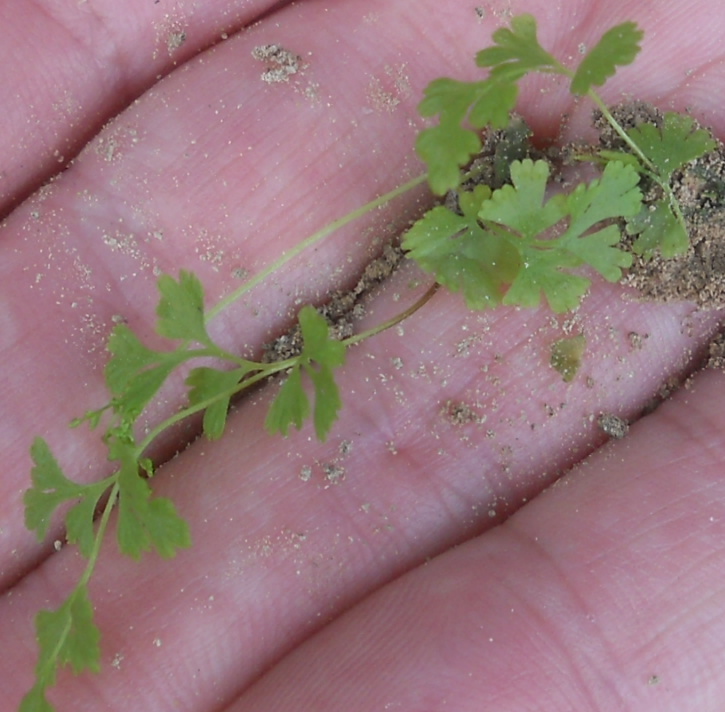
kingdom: Plantae
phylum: Tracheophyta
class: Polypodiopsida
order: Polypodiales
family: Pteridaceae
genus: Anogramma
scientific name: Anogramma leptophylla
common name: Jersey fern
